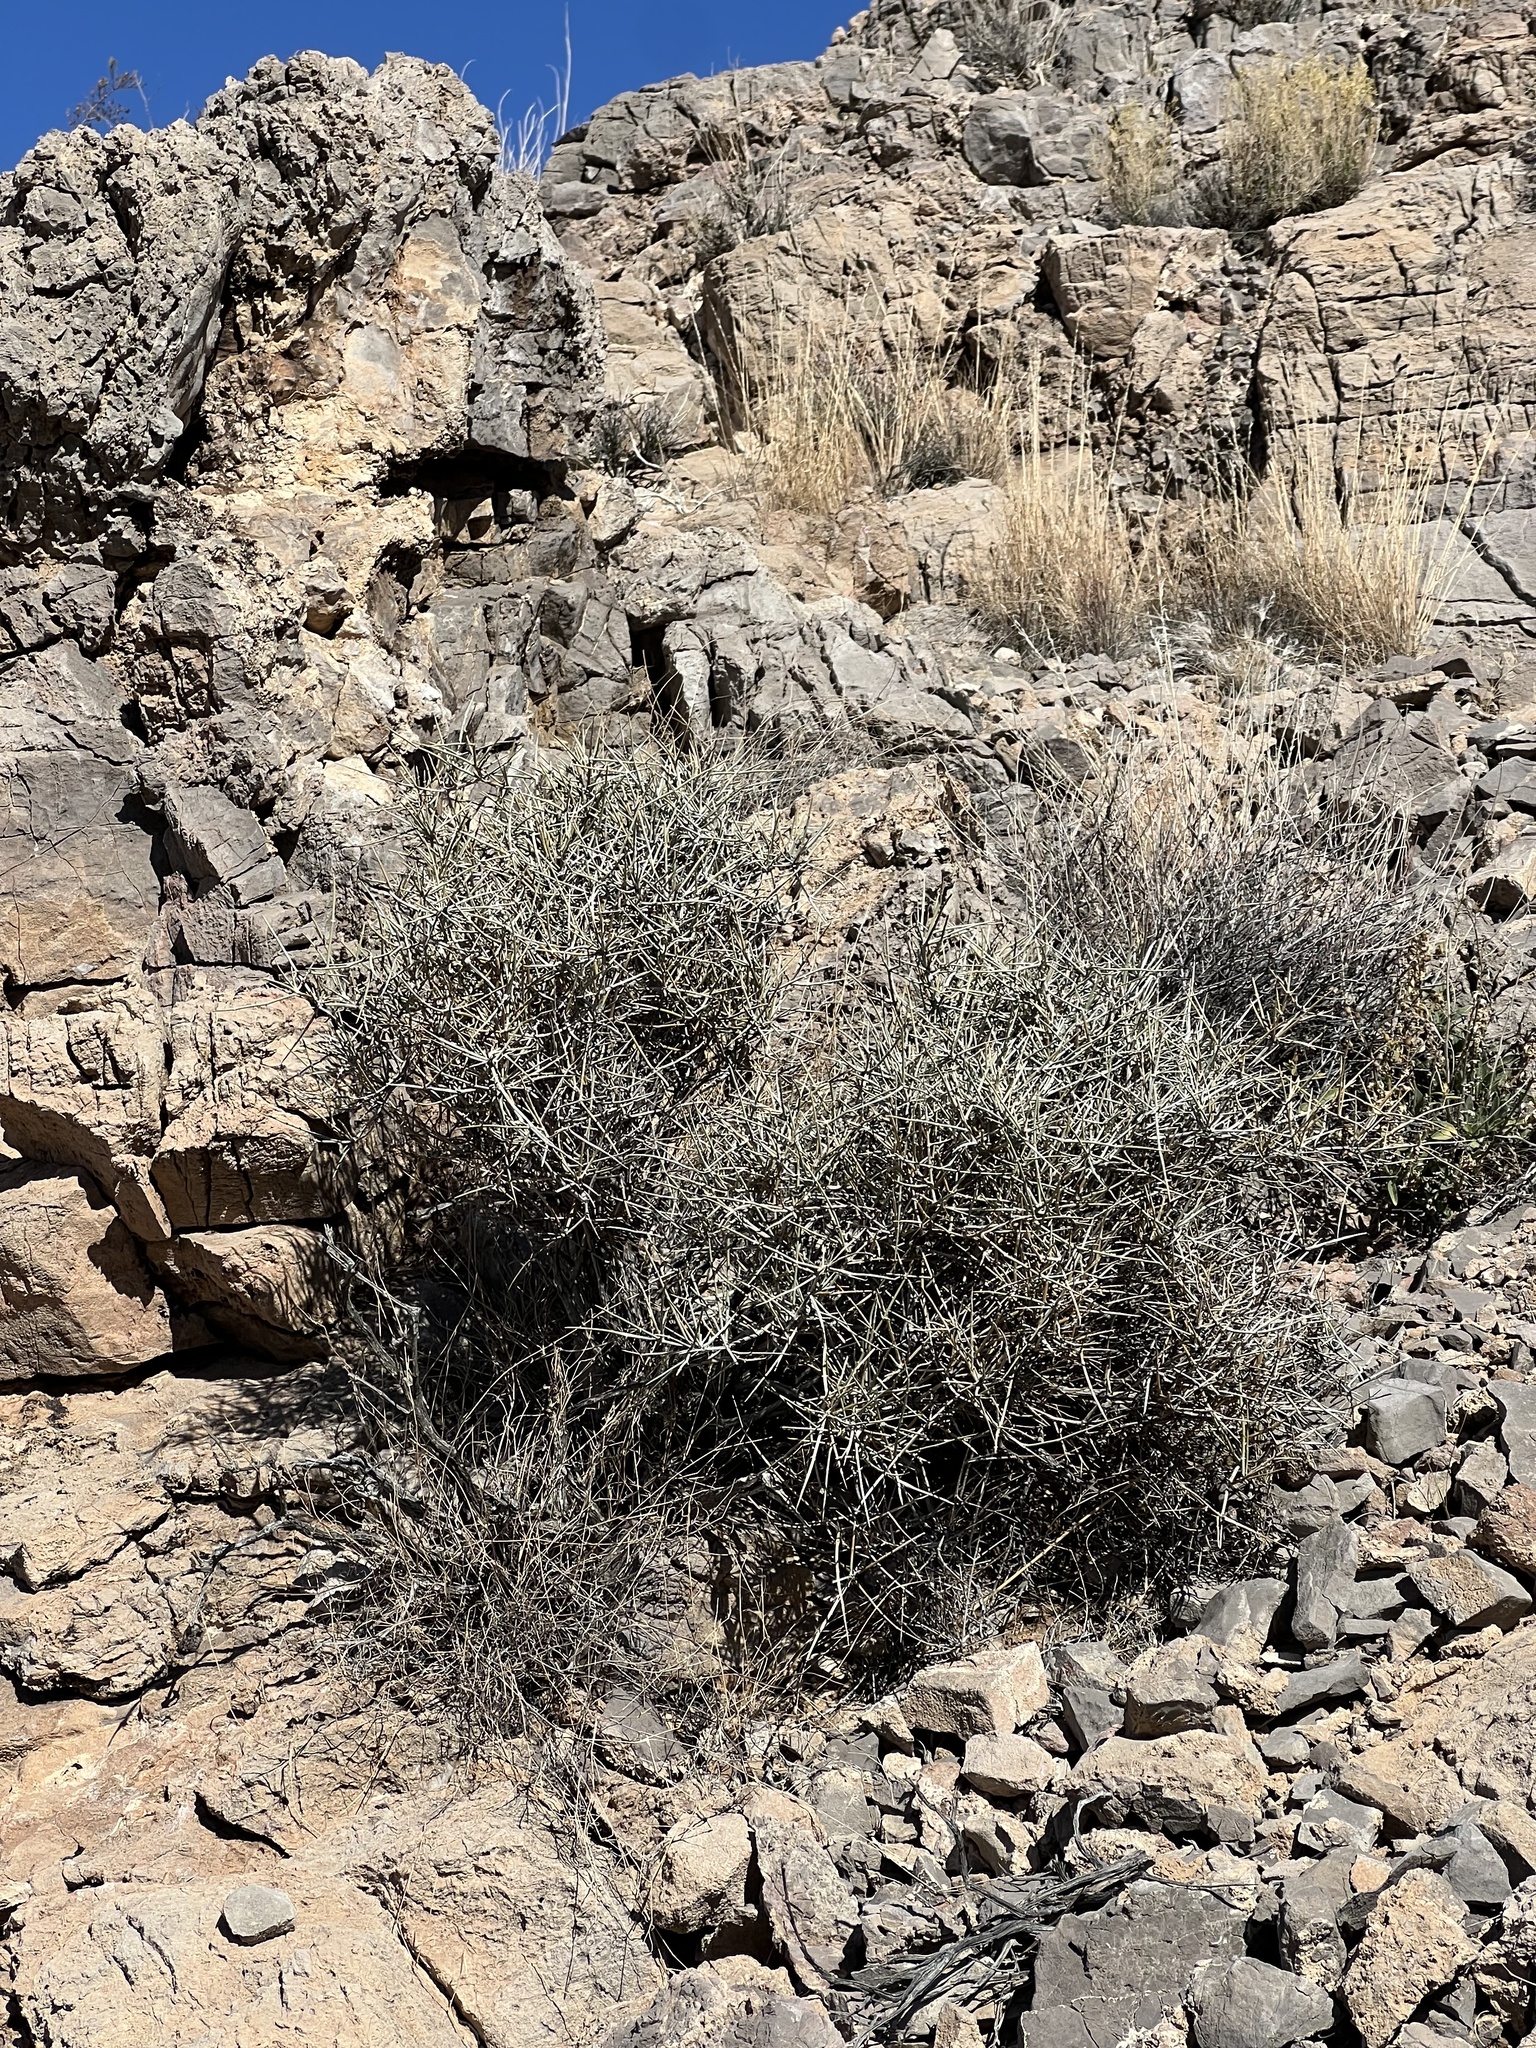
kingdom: Plantae
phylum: Tracheophyta
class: Gnetopsida
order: Ephedrales
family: Ephedraceae
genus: Ephedra
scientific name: Ephedra nevadensis
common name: Gray ephedra
